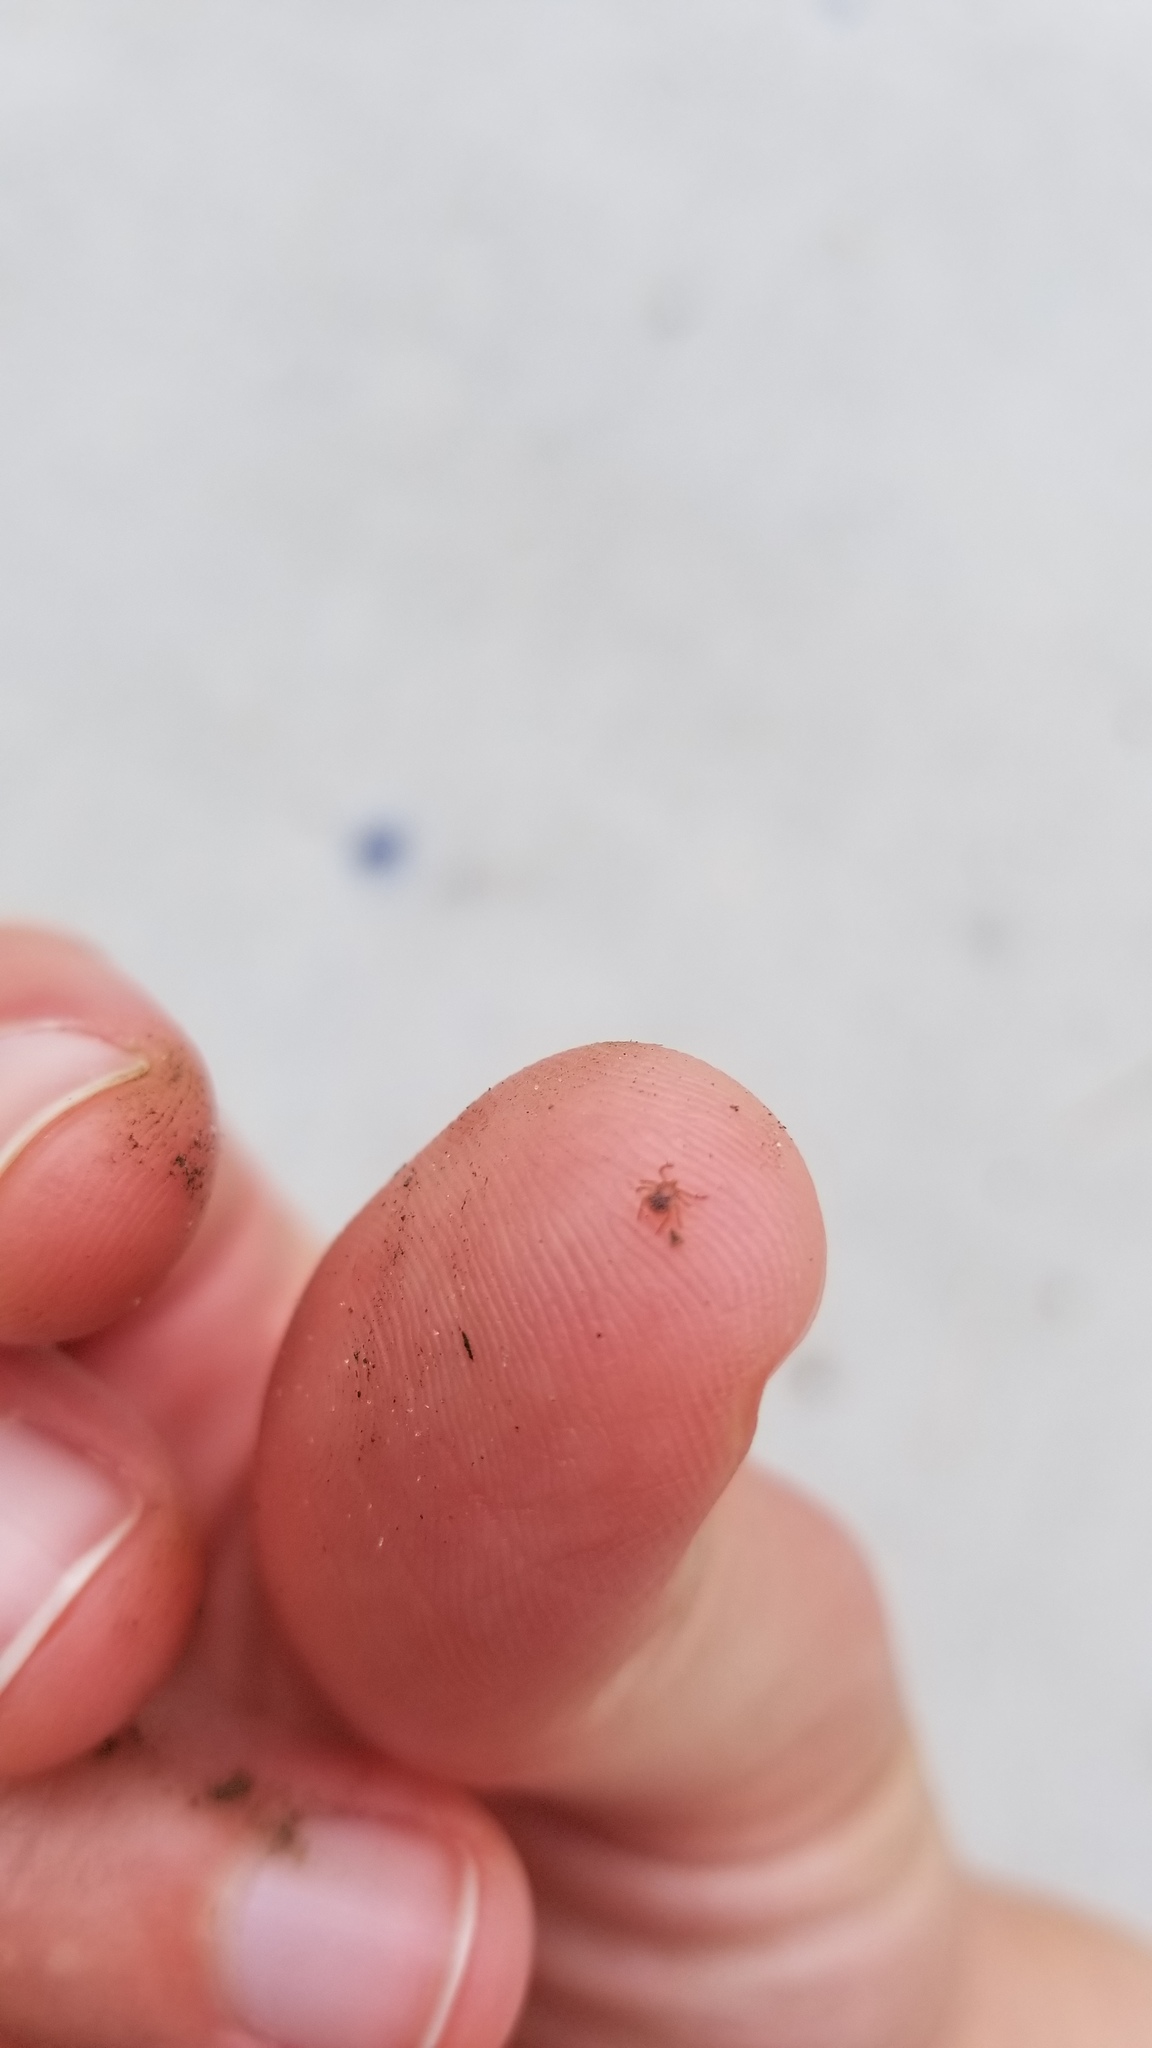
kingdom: Animalia
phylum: Arthropoda
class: Arachnida
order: Ixodida
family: Ixodidae
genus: Amblyomma
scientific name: Amblyomma americanum
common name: Lone star tick
